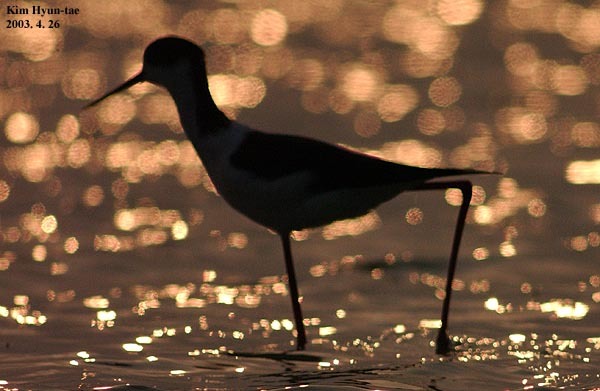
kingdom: Animalia
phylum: Chordata
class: Aves
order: Charadriiformes
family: Recurvirostridae
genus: Himantopus
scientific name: Himantopus himantopus
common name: Black-winged stilt
